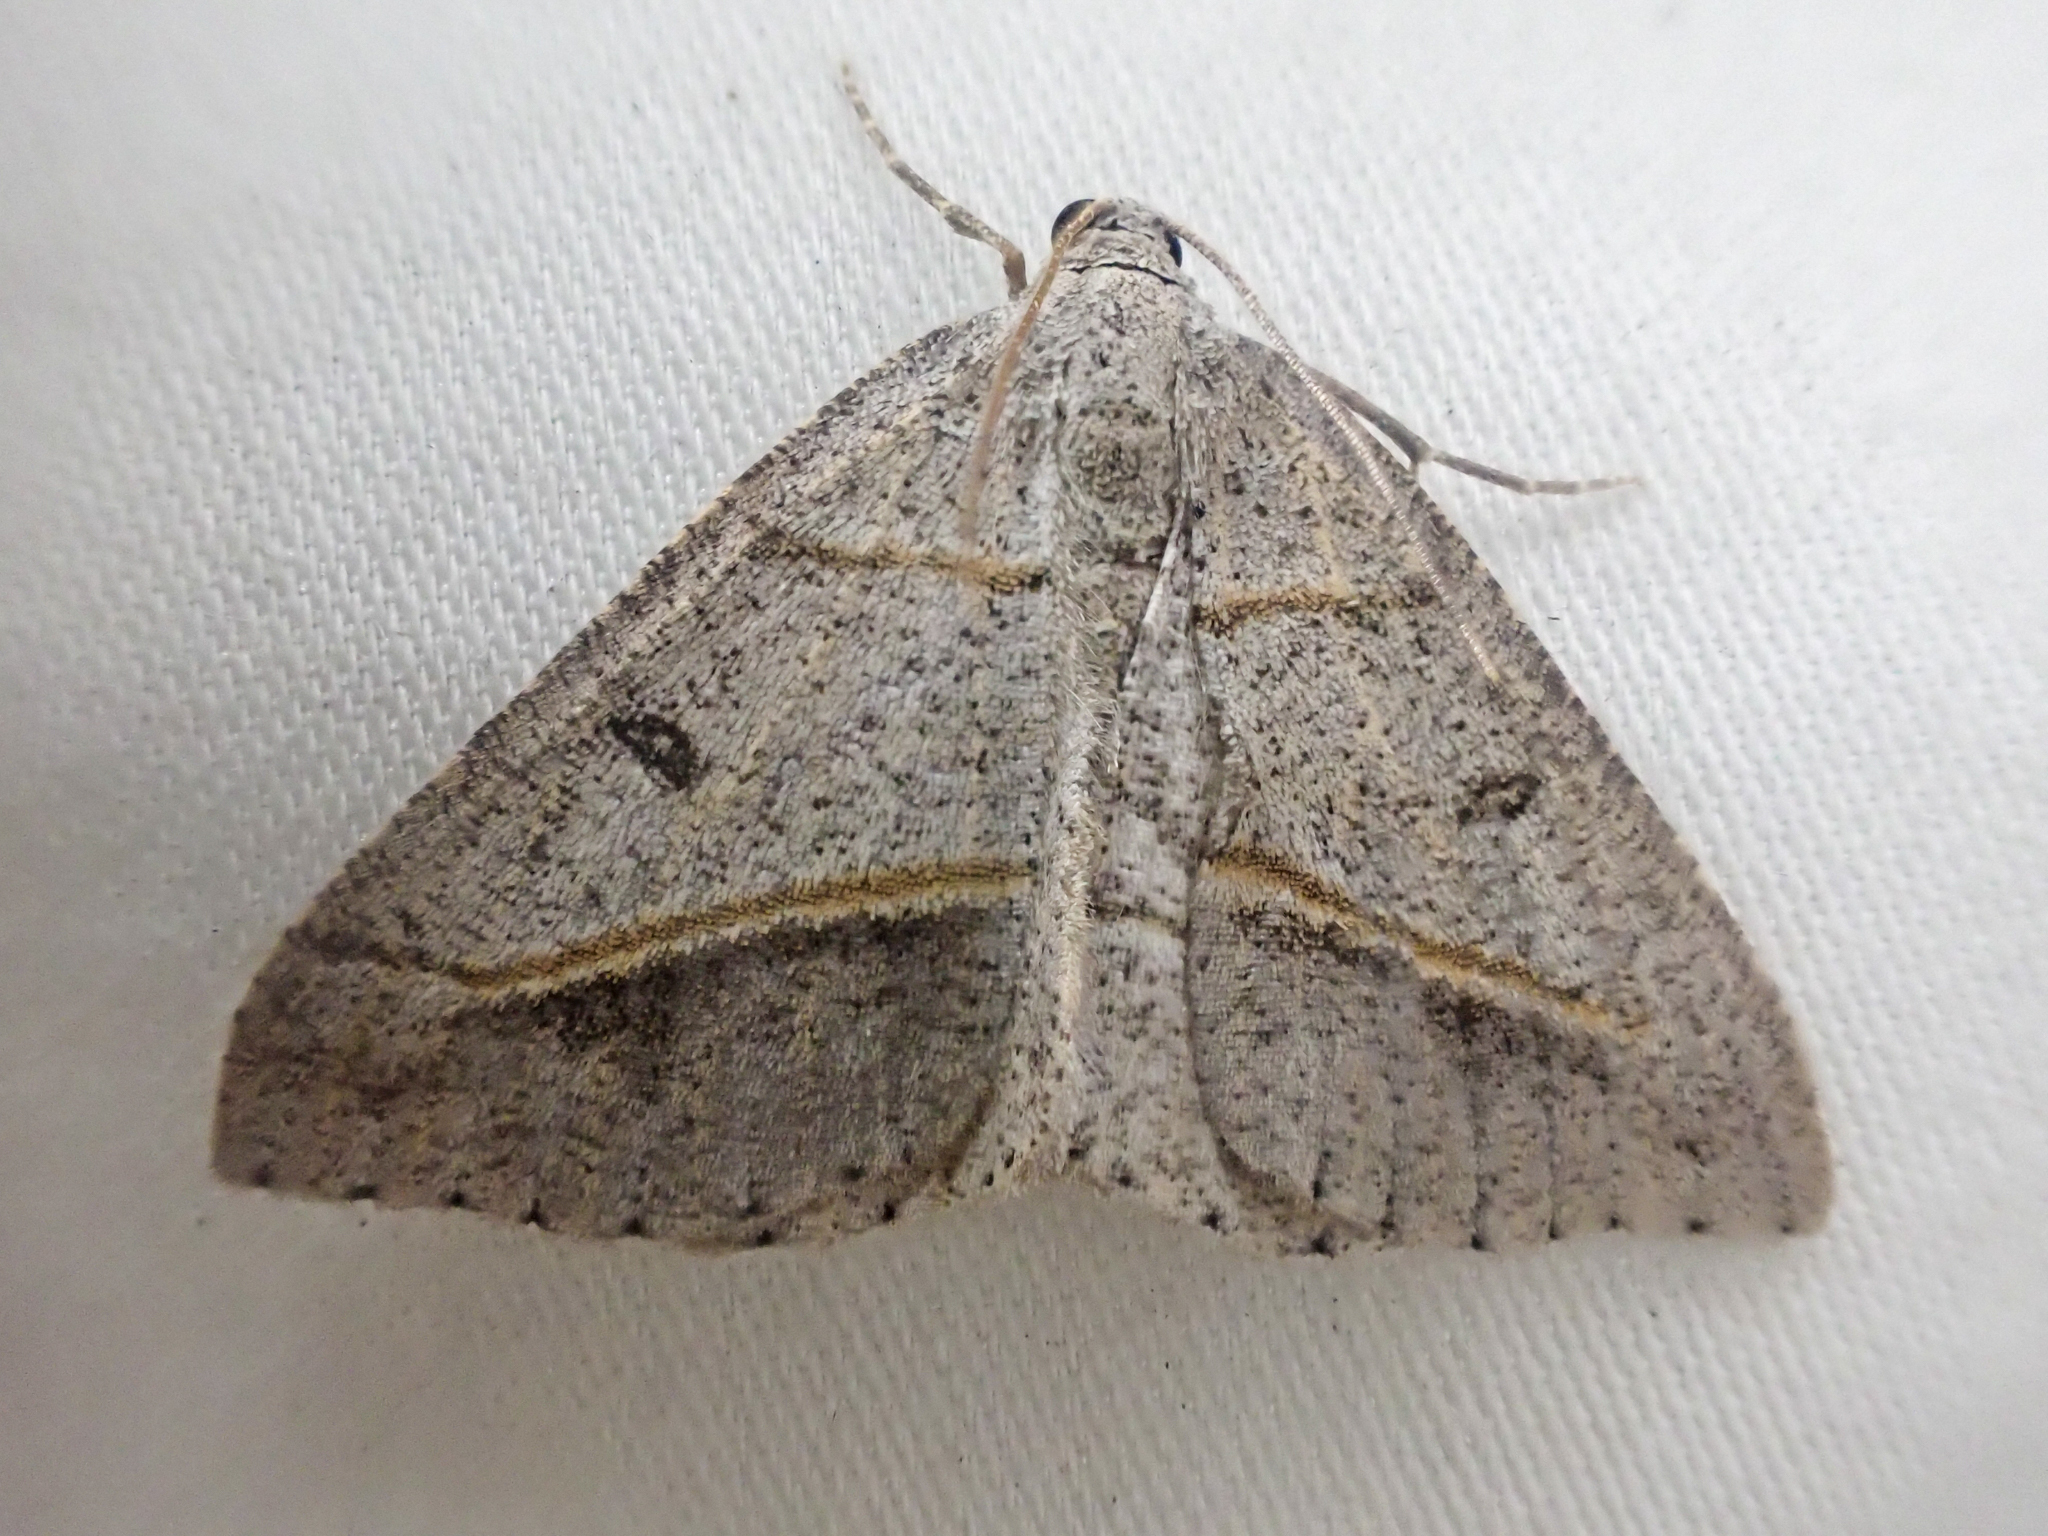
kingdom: Animalia
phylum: Arthropoda
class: Insecta
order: Lepidoptera
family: Geometridae
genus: Digrammia
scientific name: Digrammia neptaria
